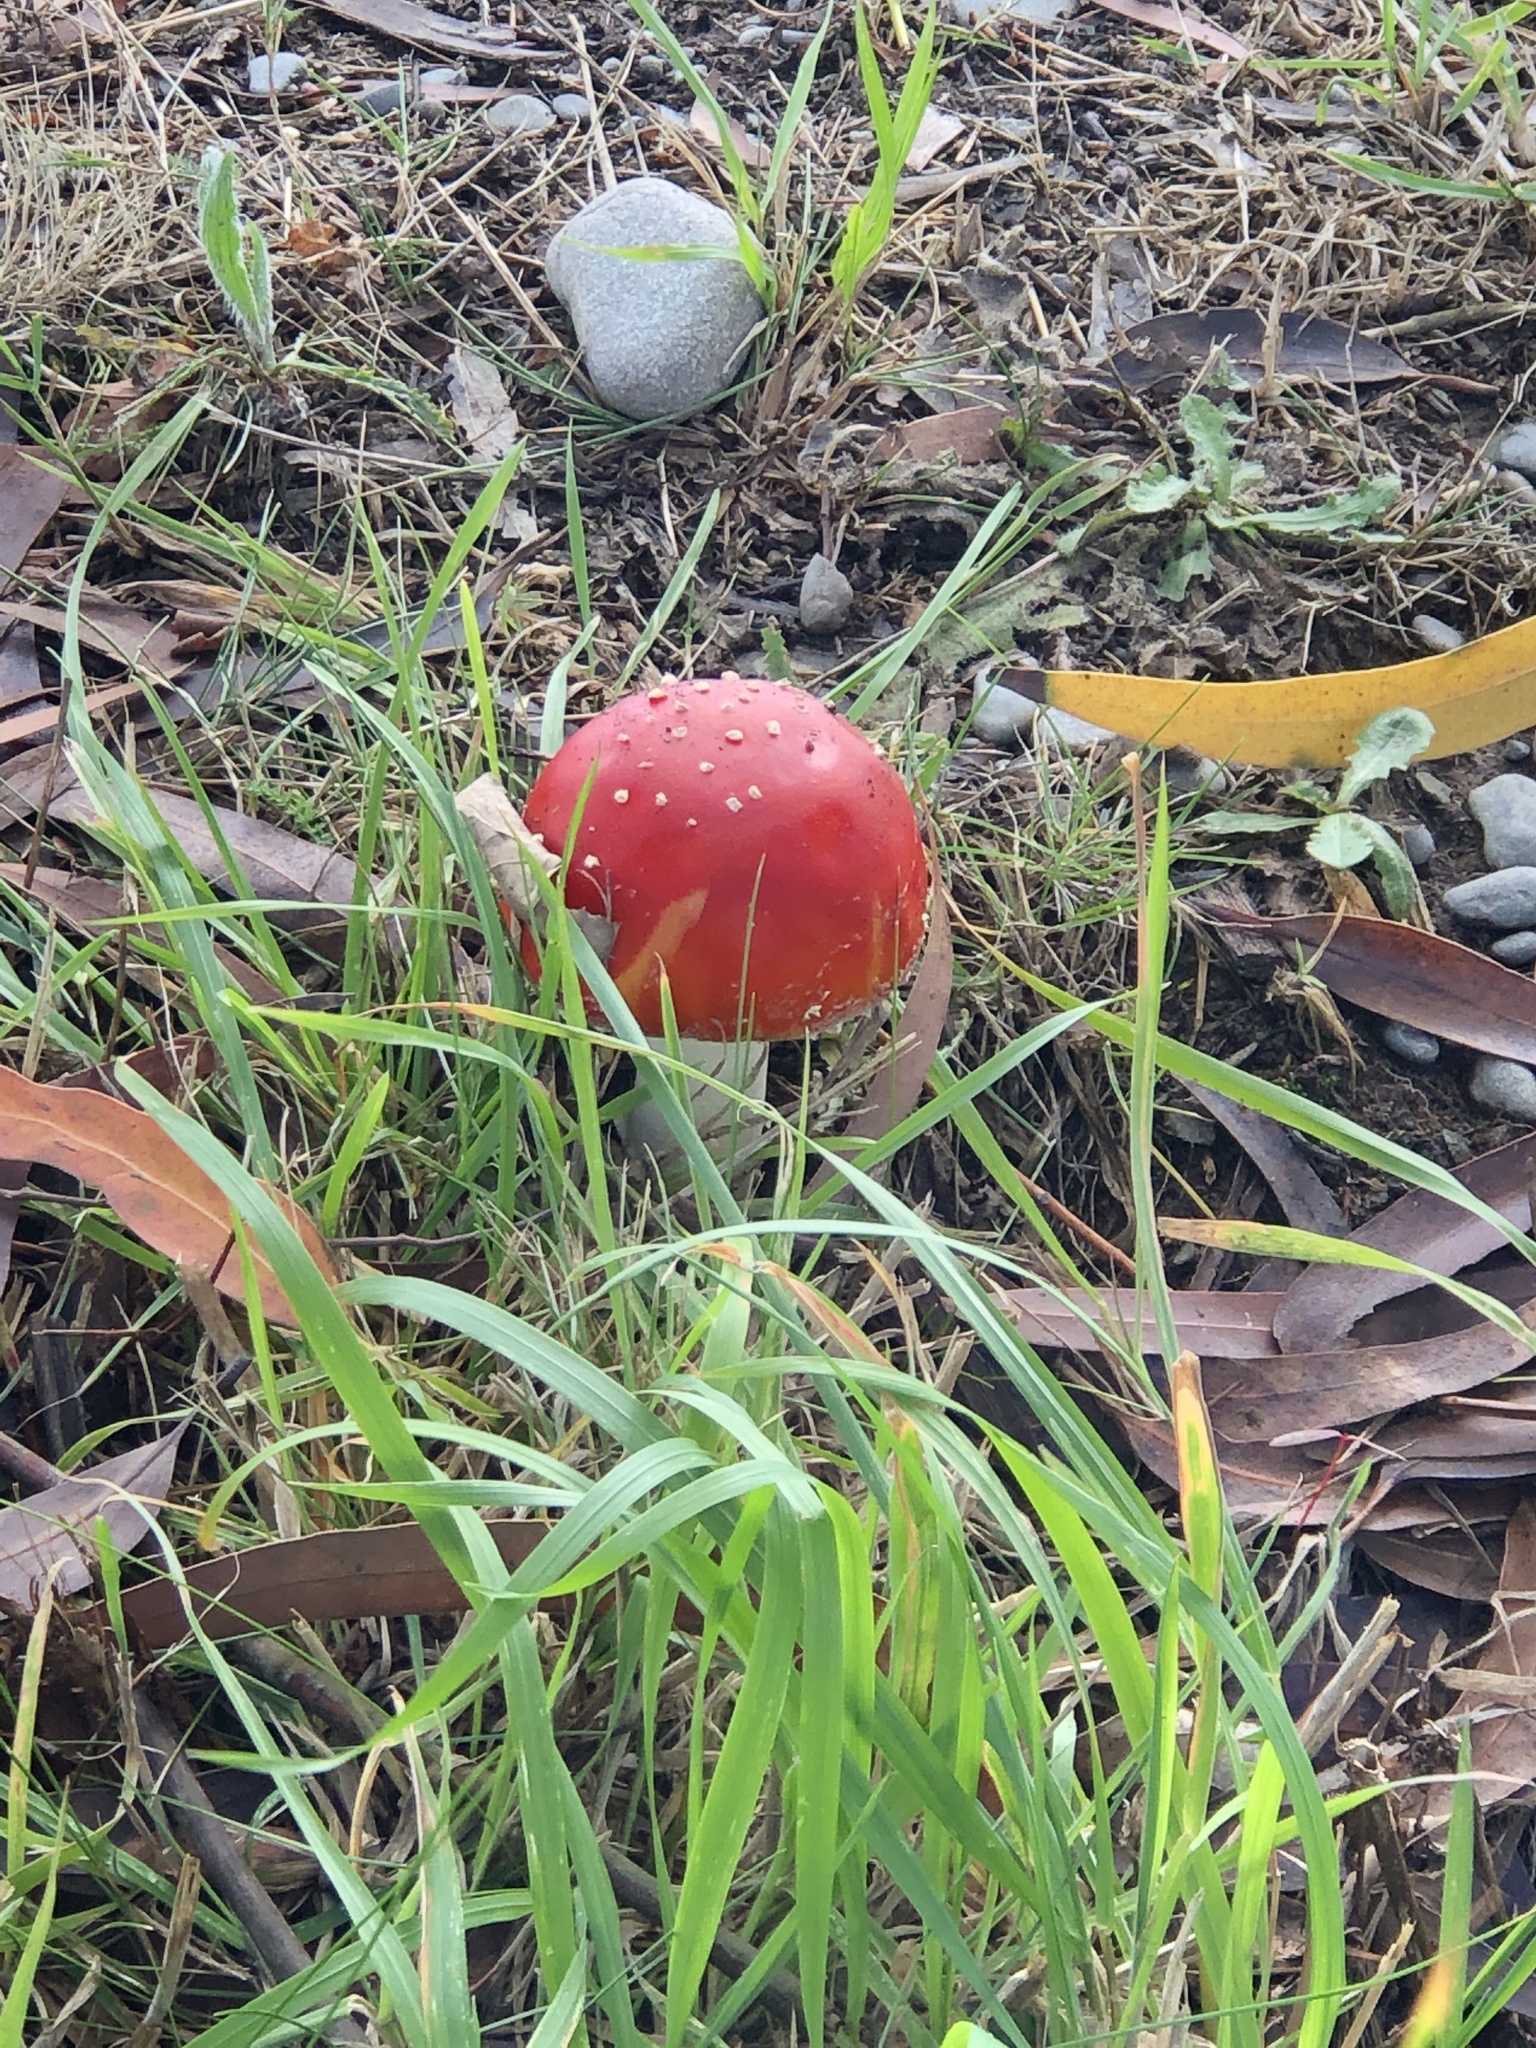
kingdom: Fungi
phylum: Basidiomycota
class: Agaricomycetes
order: Agaricales
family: Amanitaceae
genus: Amanita
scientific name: Amanita muscaria
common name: Fly agaric
